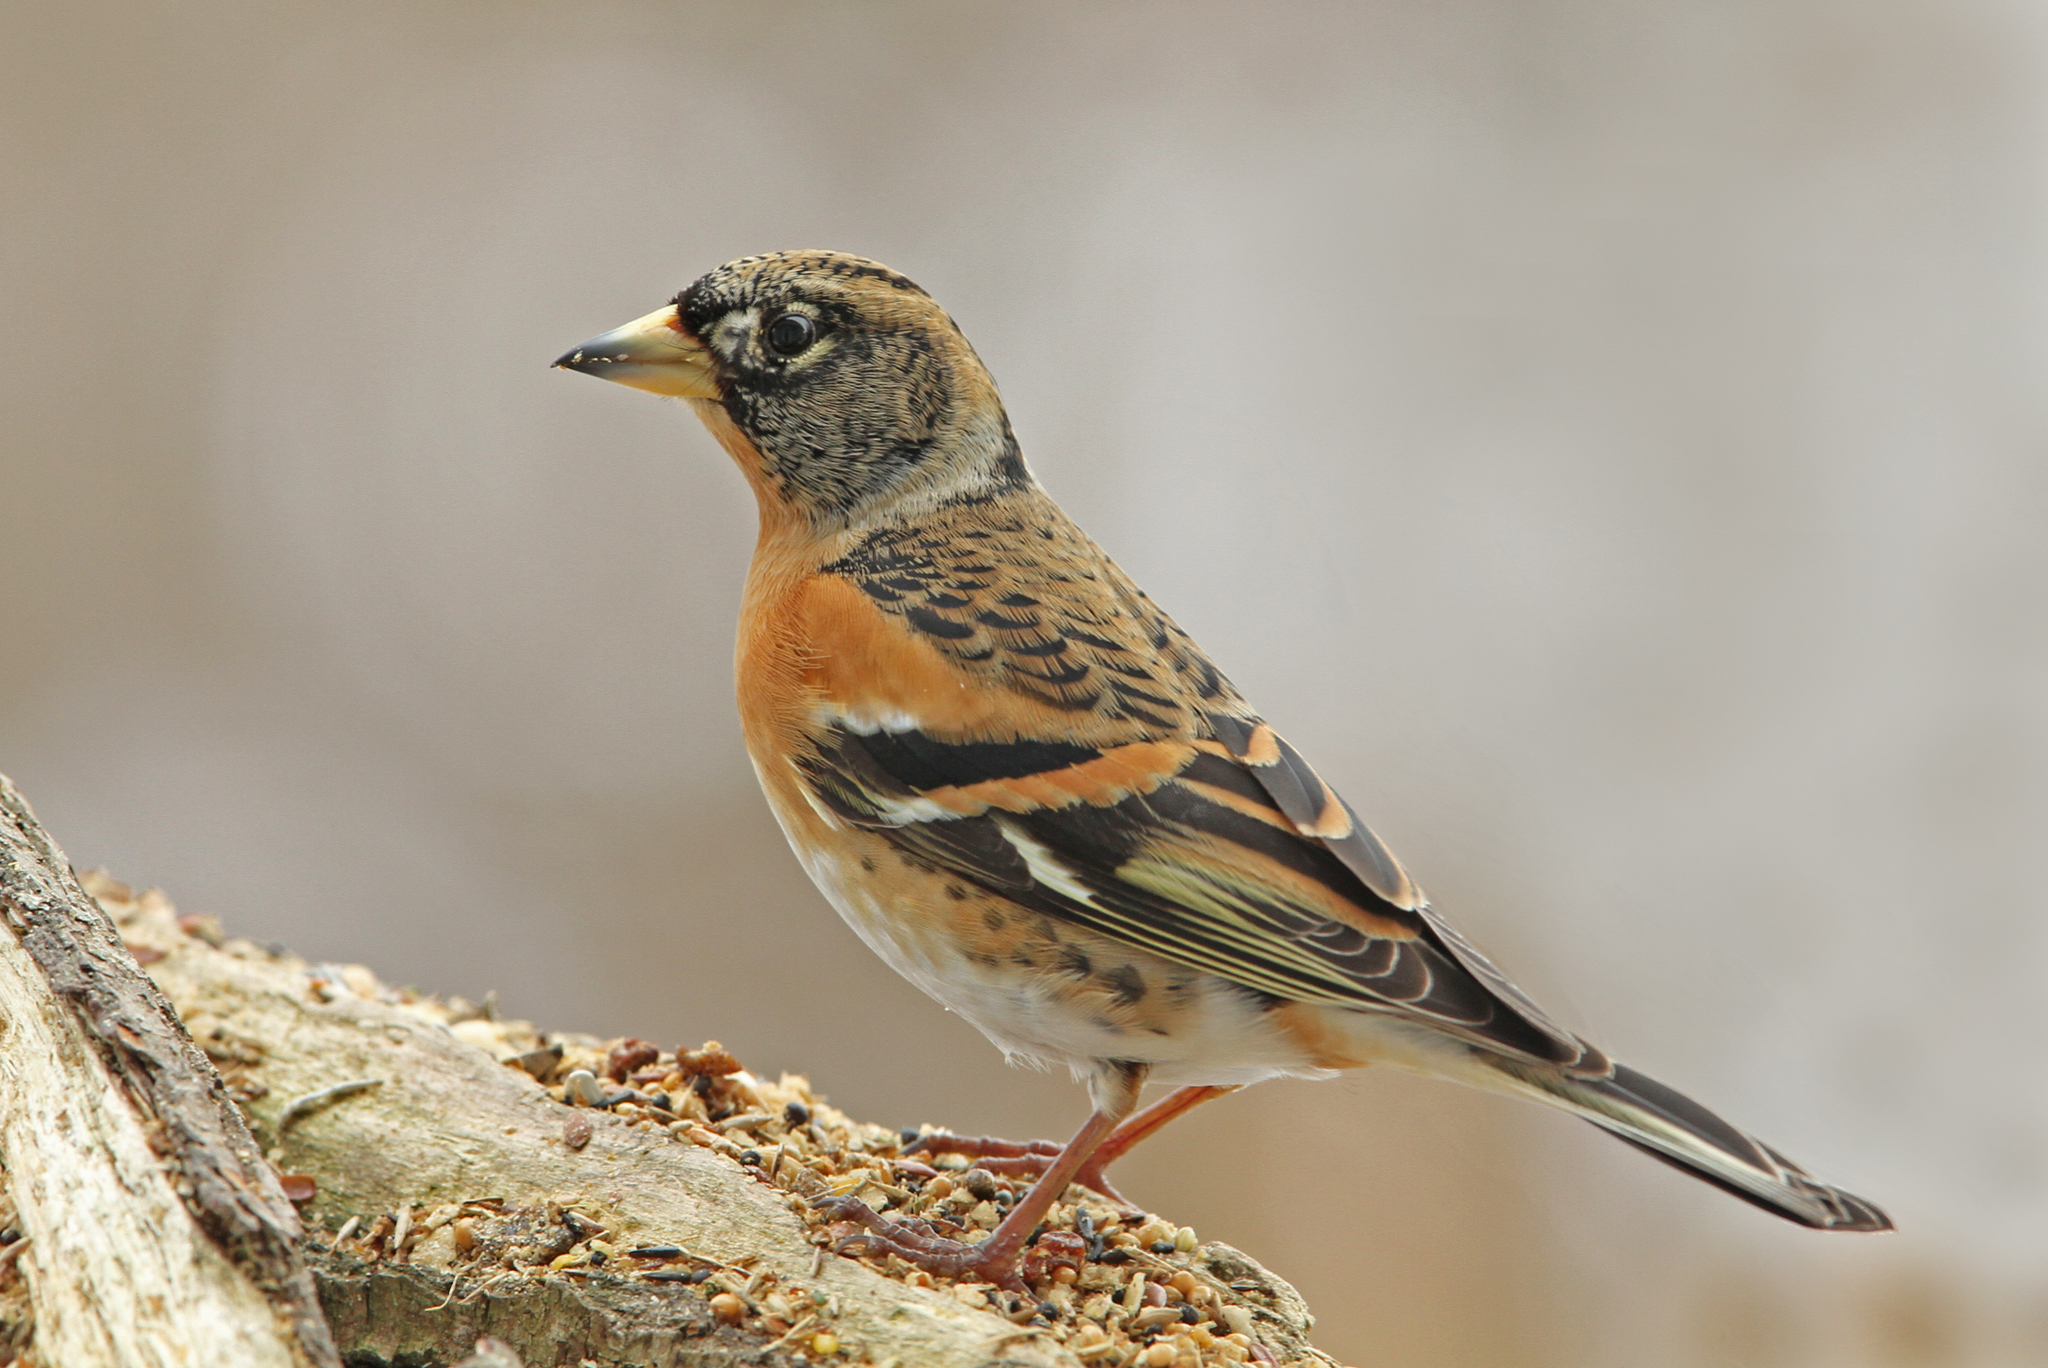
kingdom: Animalia
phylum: Chordata
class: Aves
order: Passeriformes
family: Fringillidae
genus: Fringilla
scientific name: Fringilla montifringilla
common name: Brambling
